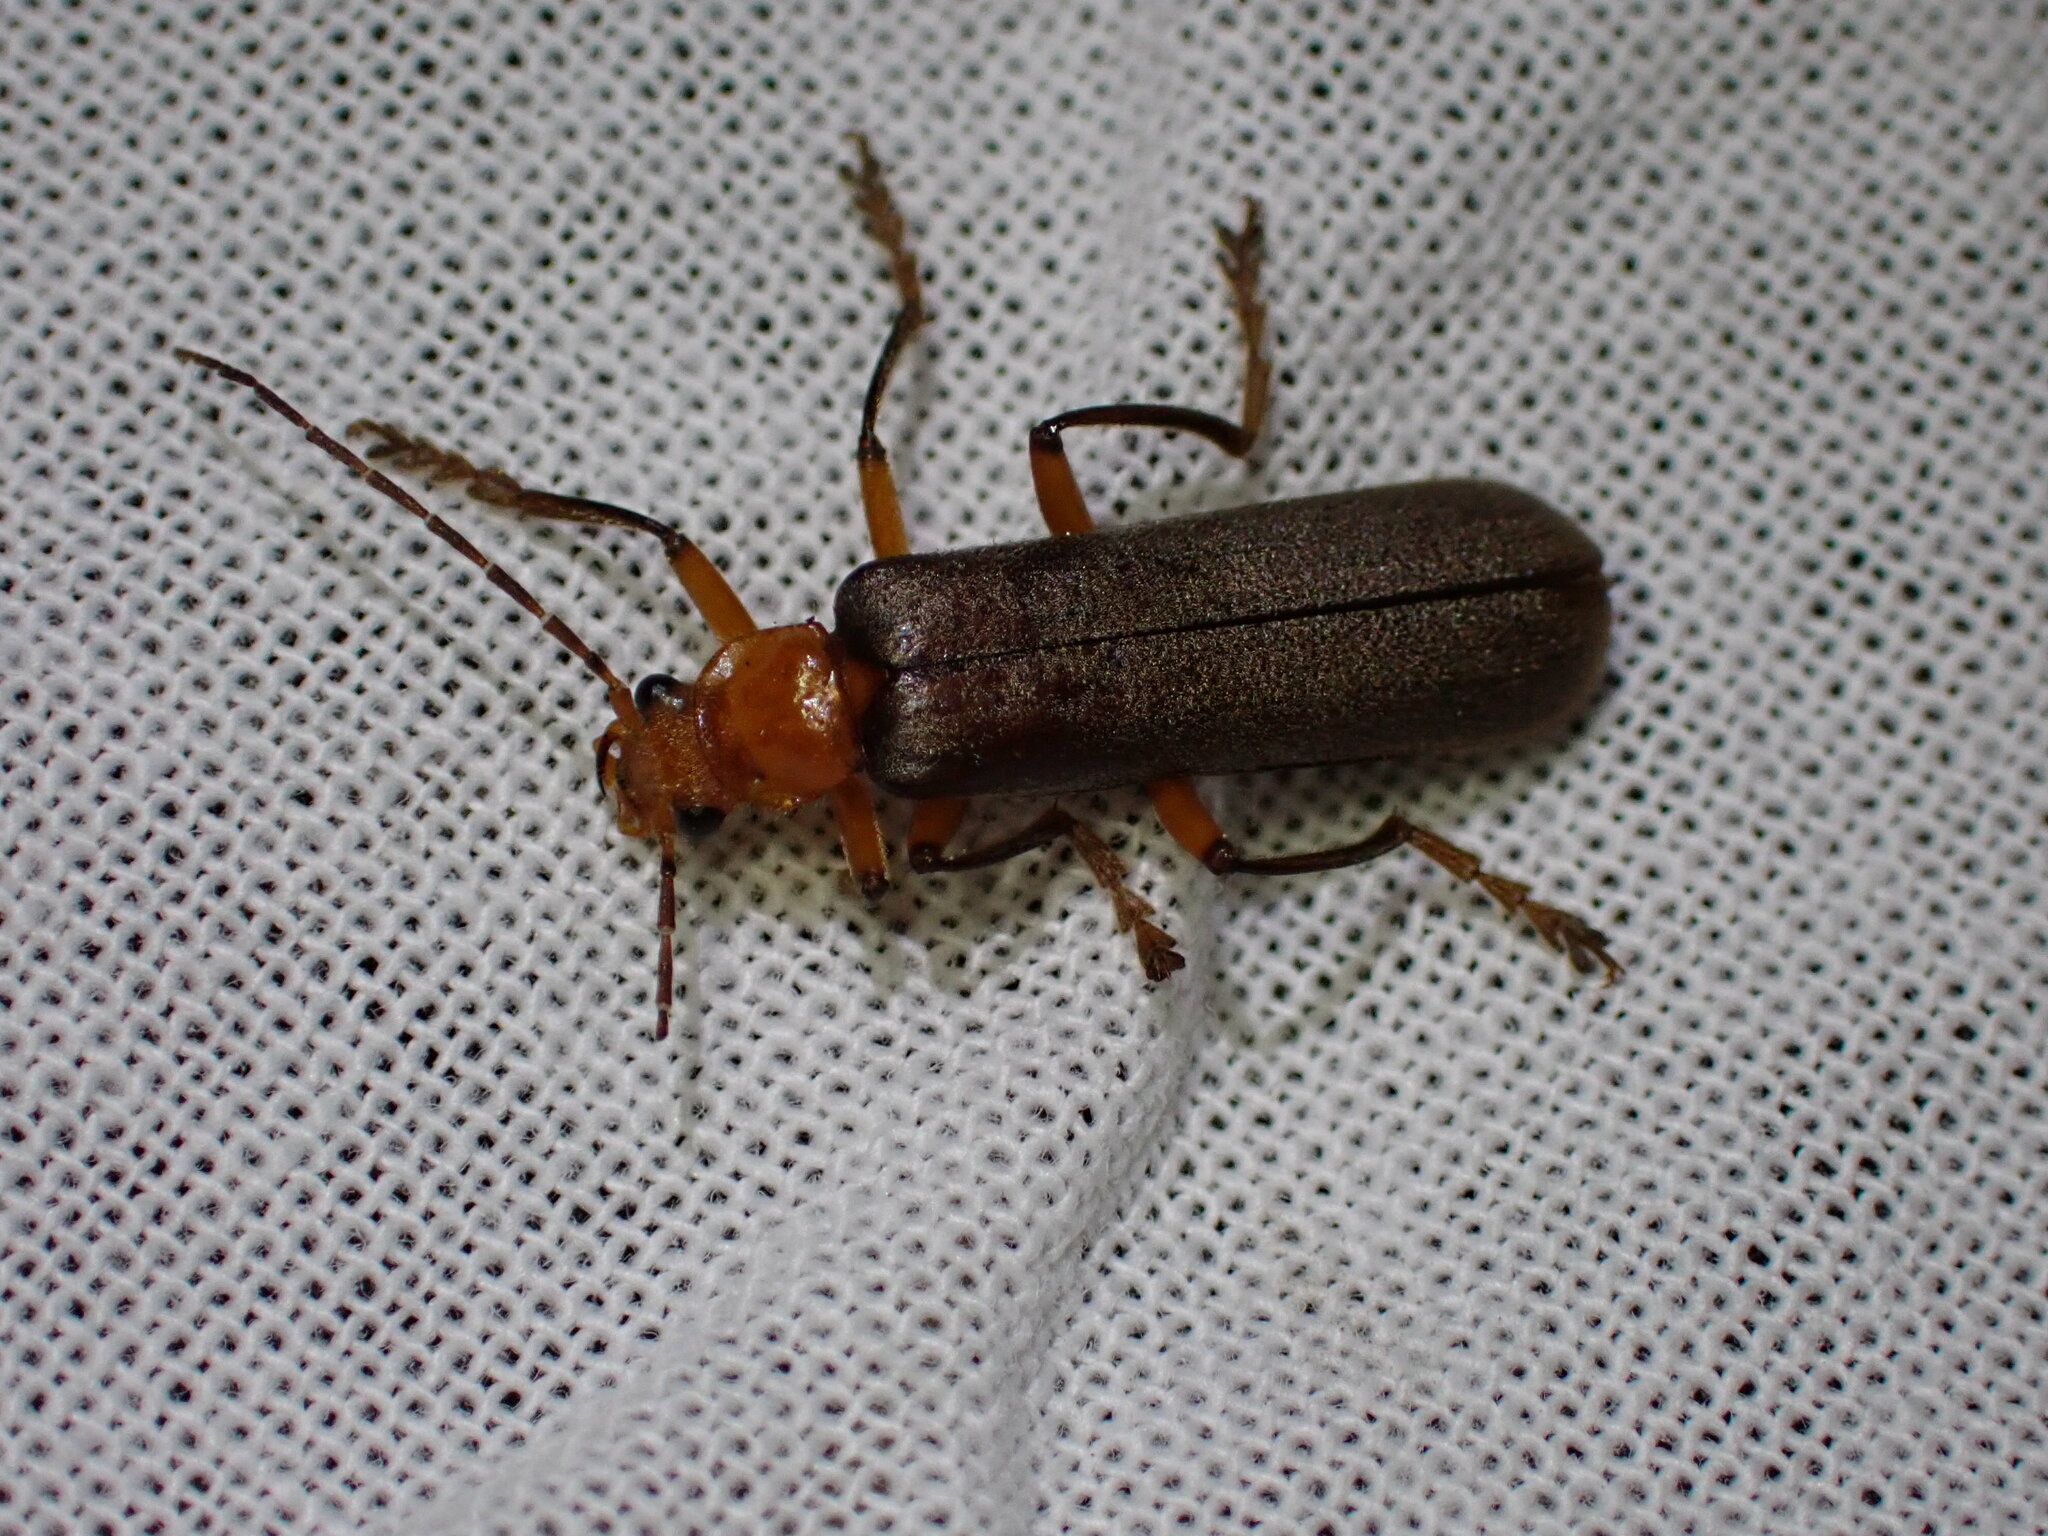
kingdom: Animalia
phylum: Arthropoda
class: Insecta
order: Coleoptera
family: Cantharidae
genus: Pacificanthia
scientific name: Pacificanthia consors
